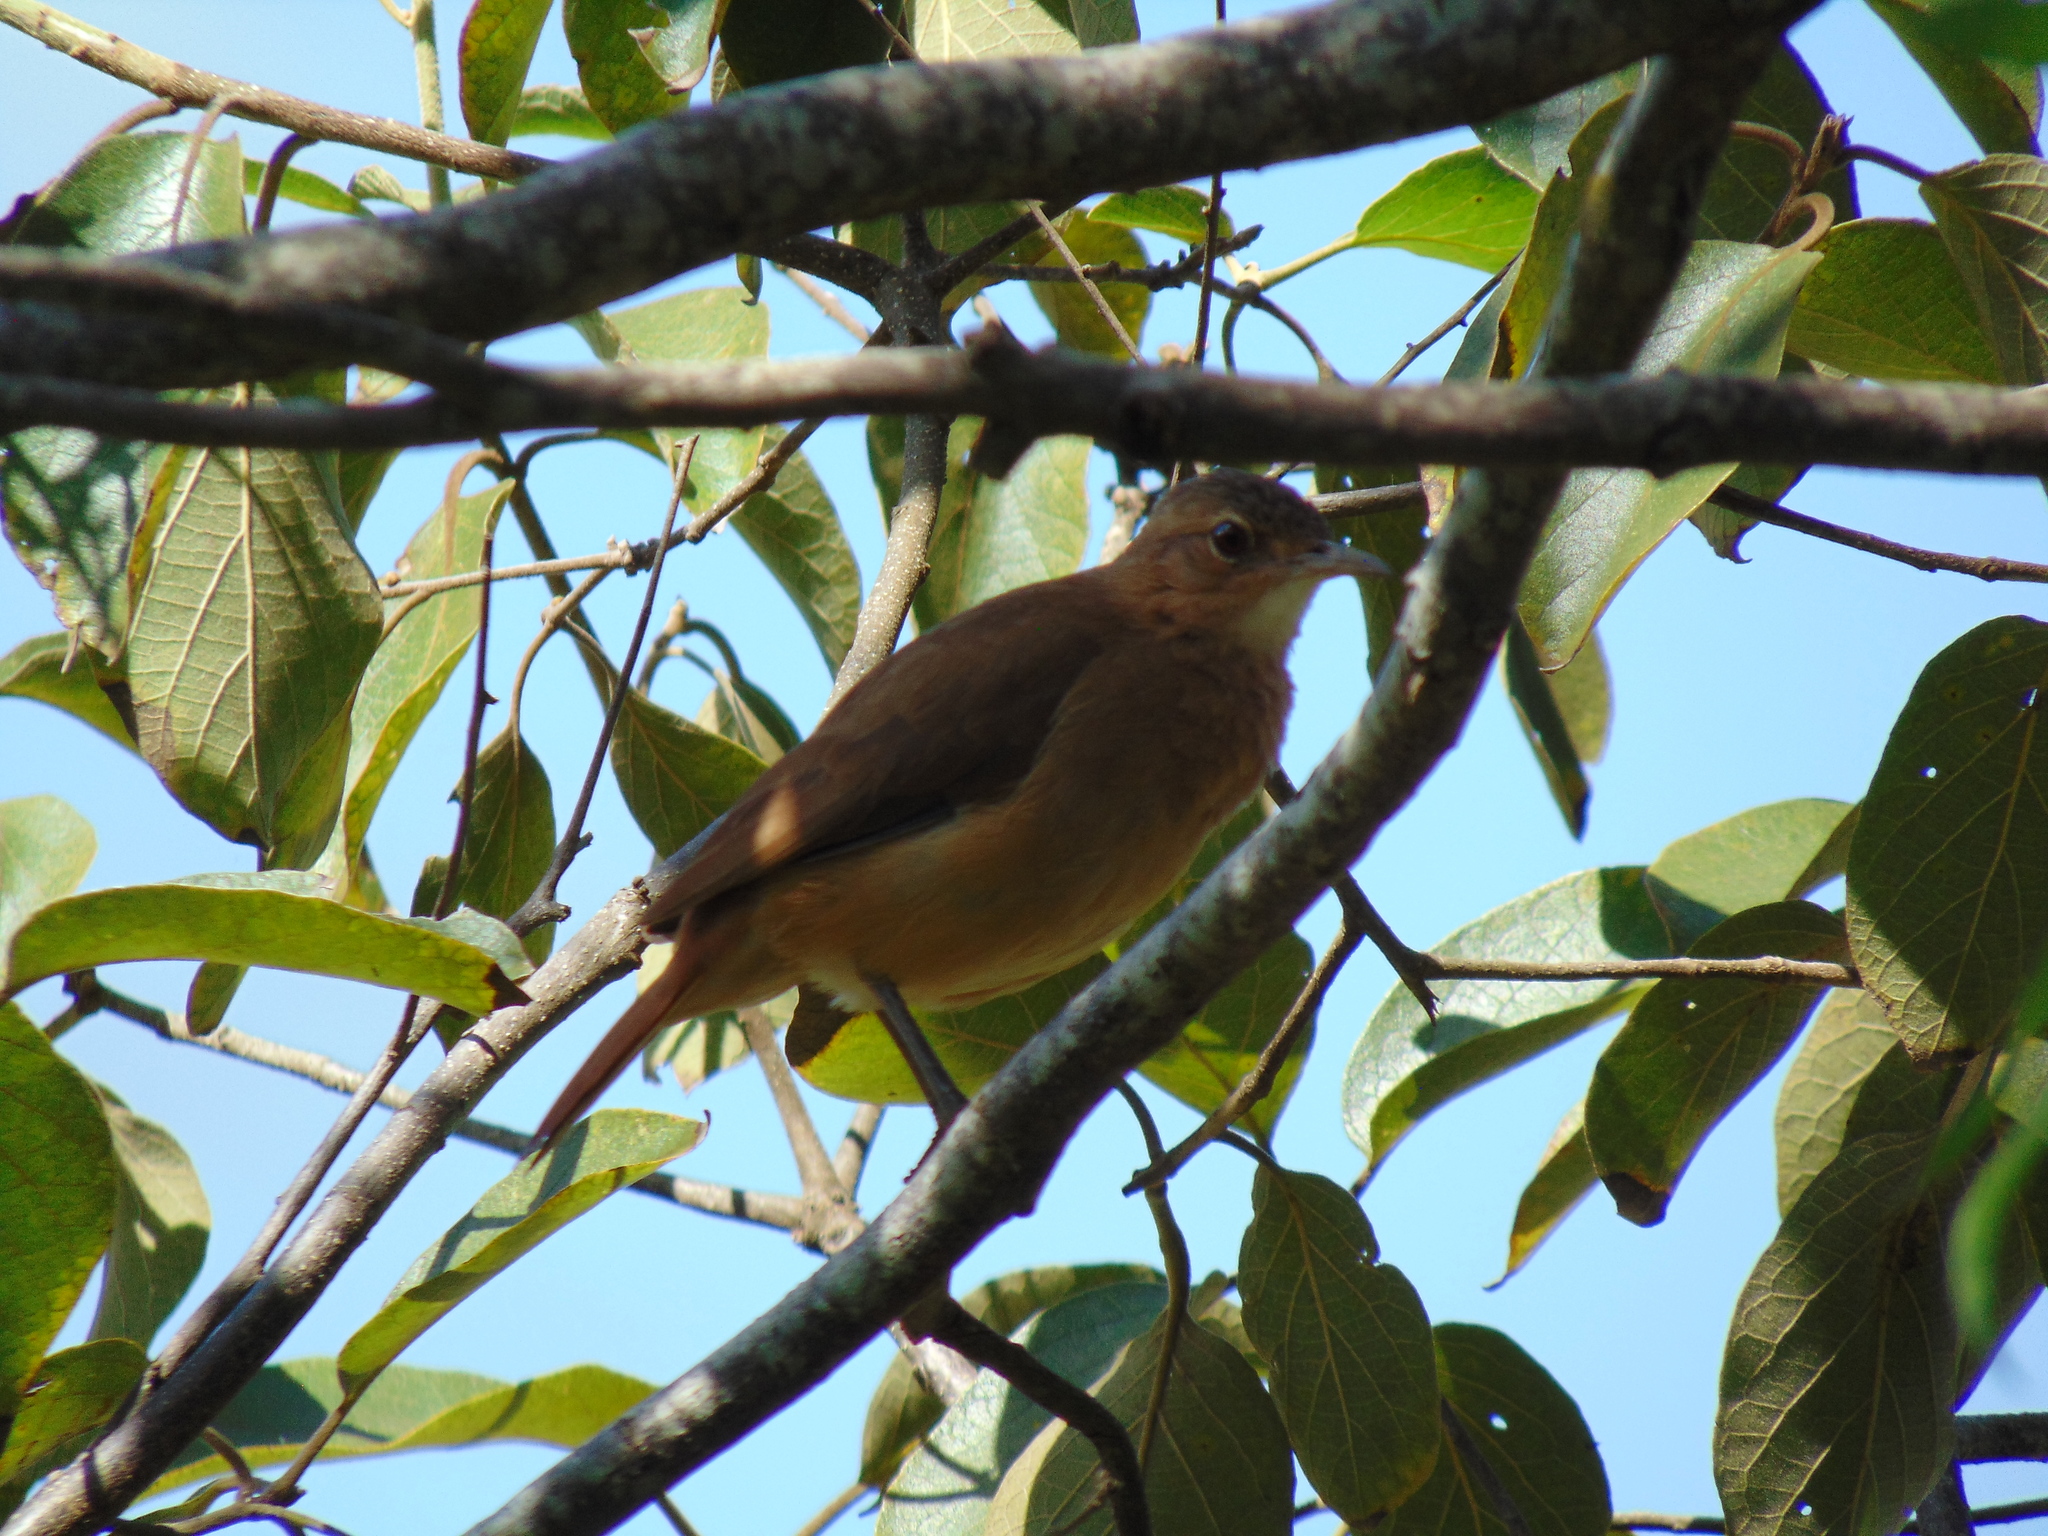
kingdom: Animalia
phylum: Chordata
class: Aves
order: Passeriformes
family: Furnariidae
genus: Furnarius
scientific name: Furnarius rufus
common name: Rufous hornero
